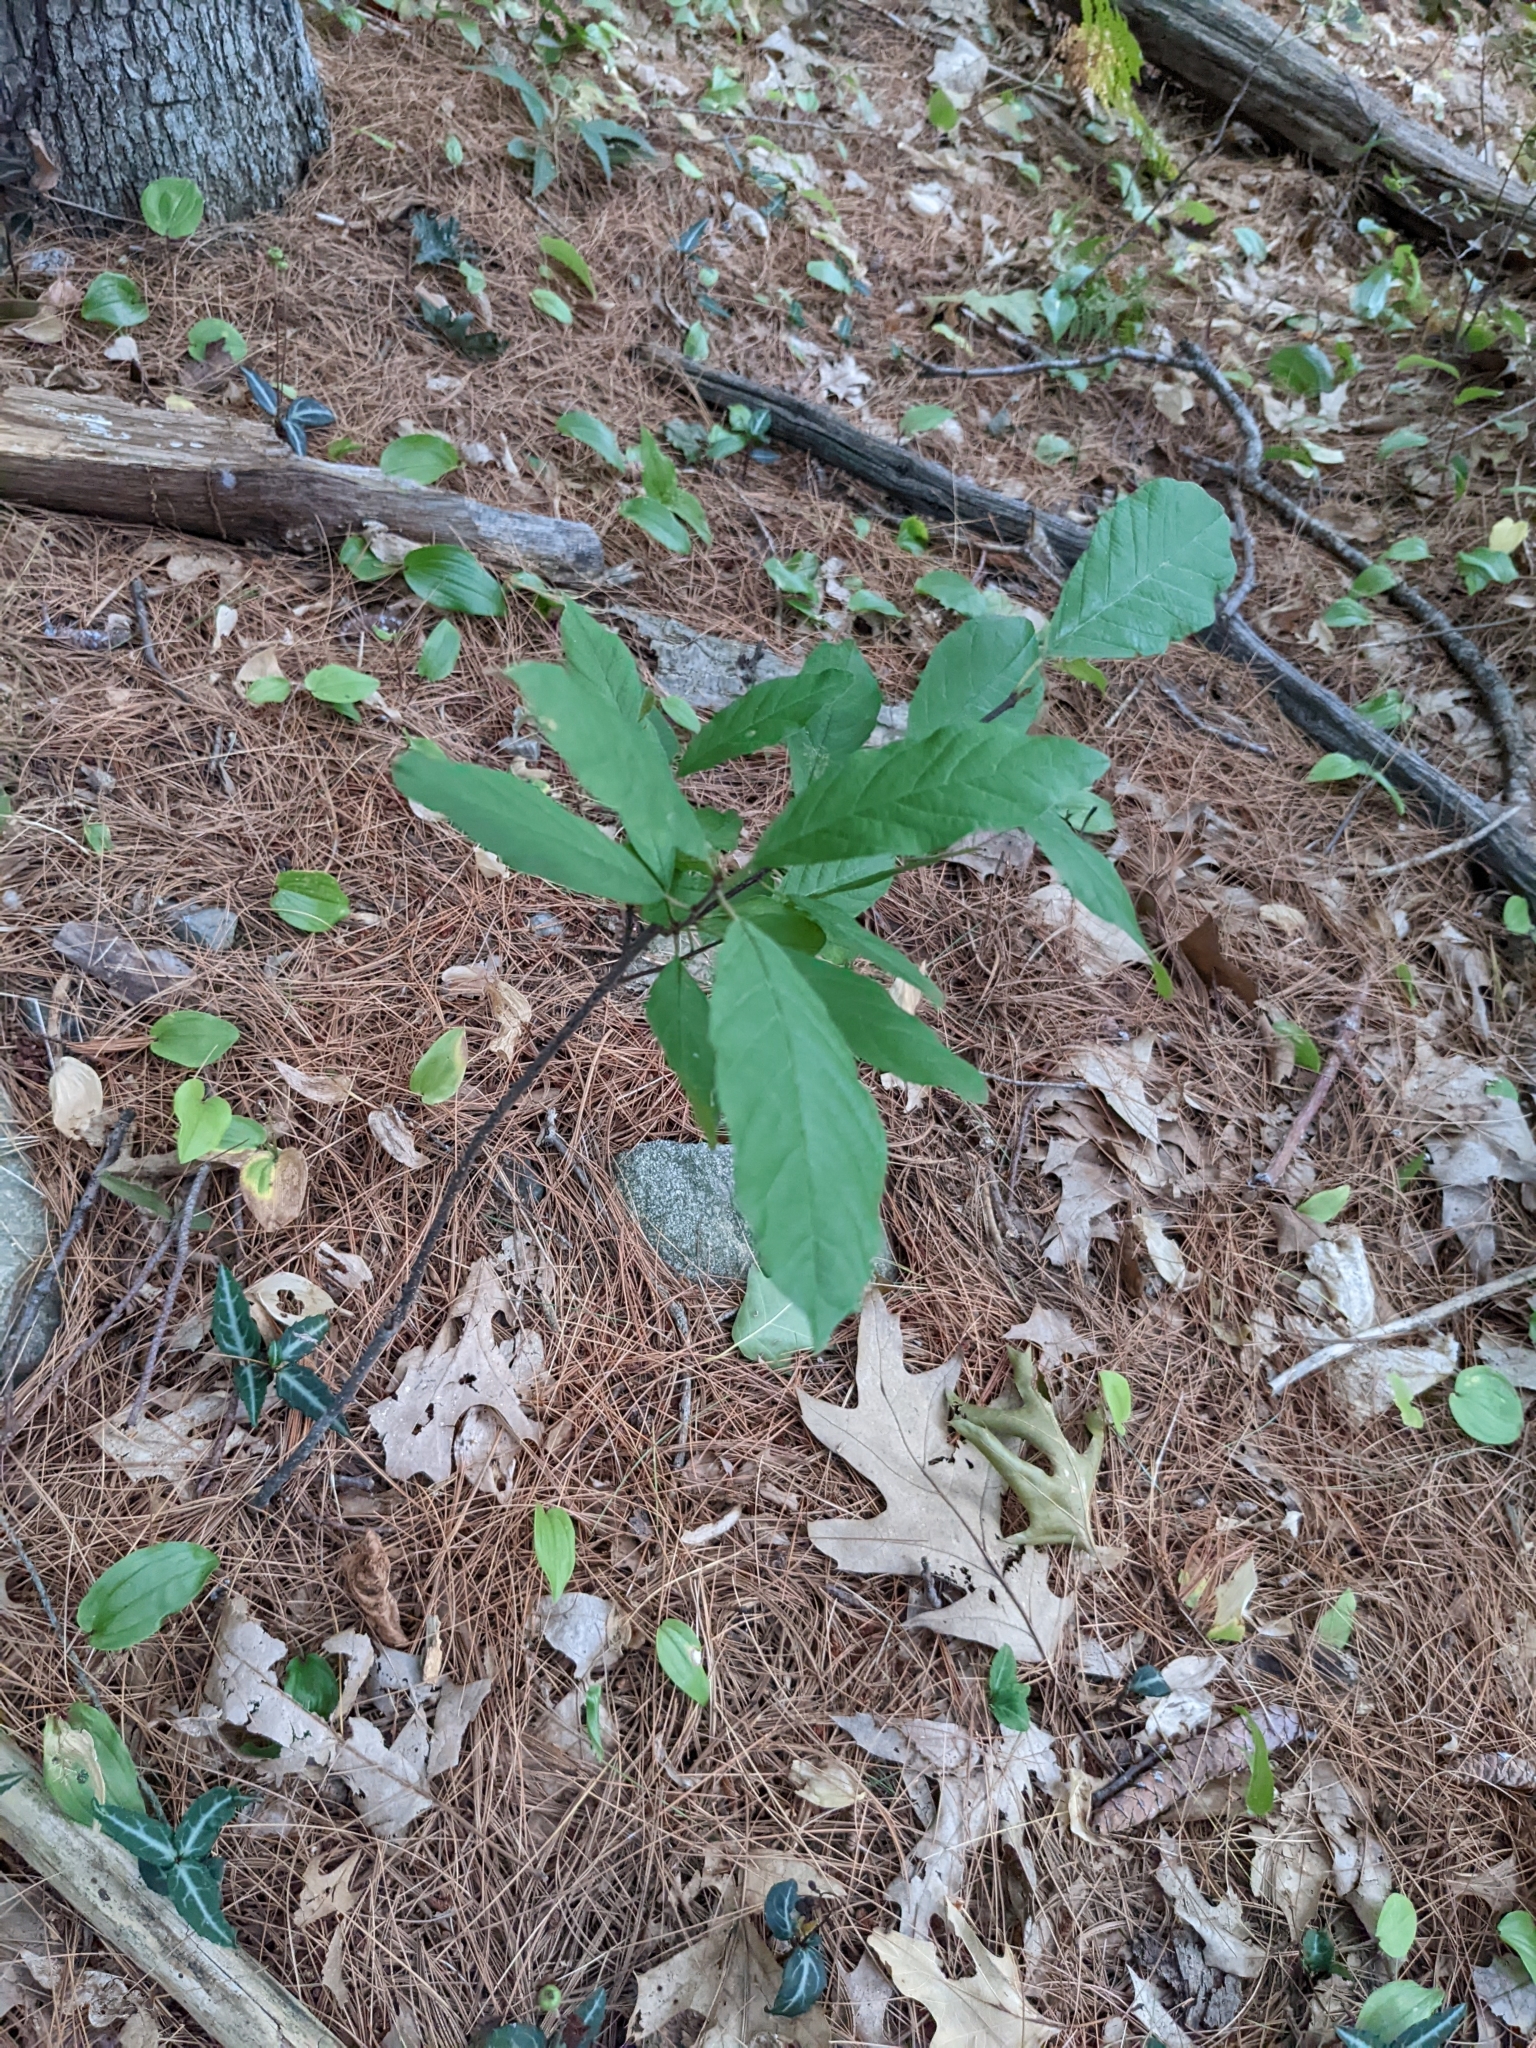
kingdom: Plantae
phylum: Tracheophyta
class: Magnoliopsida
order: Rosales
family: Rhamnaceae
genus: Frangula
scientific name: Frangula alnus
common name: Alder buckthorn
